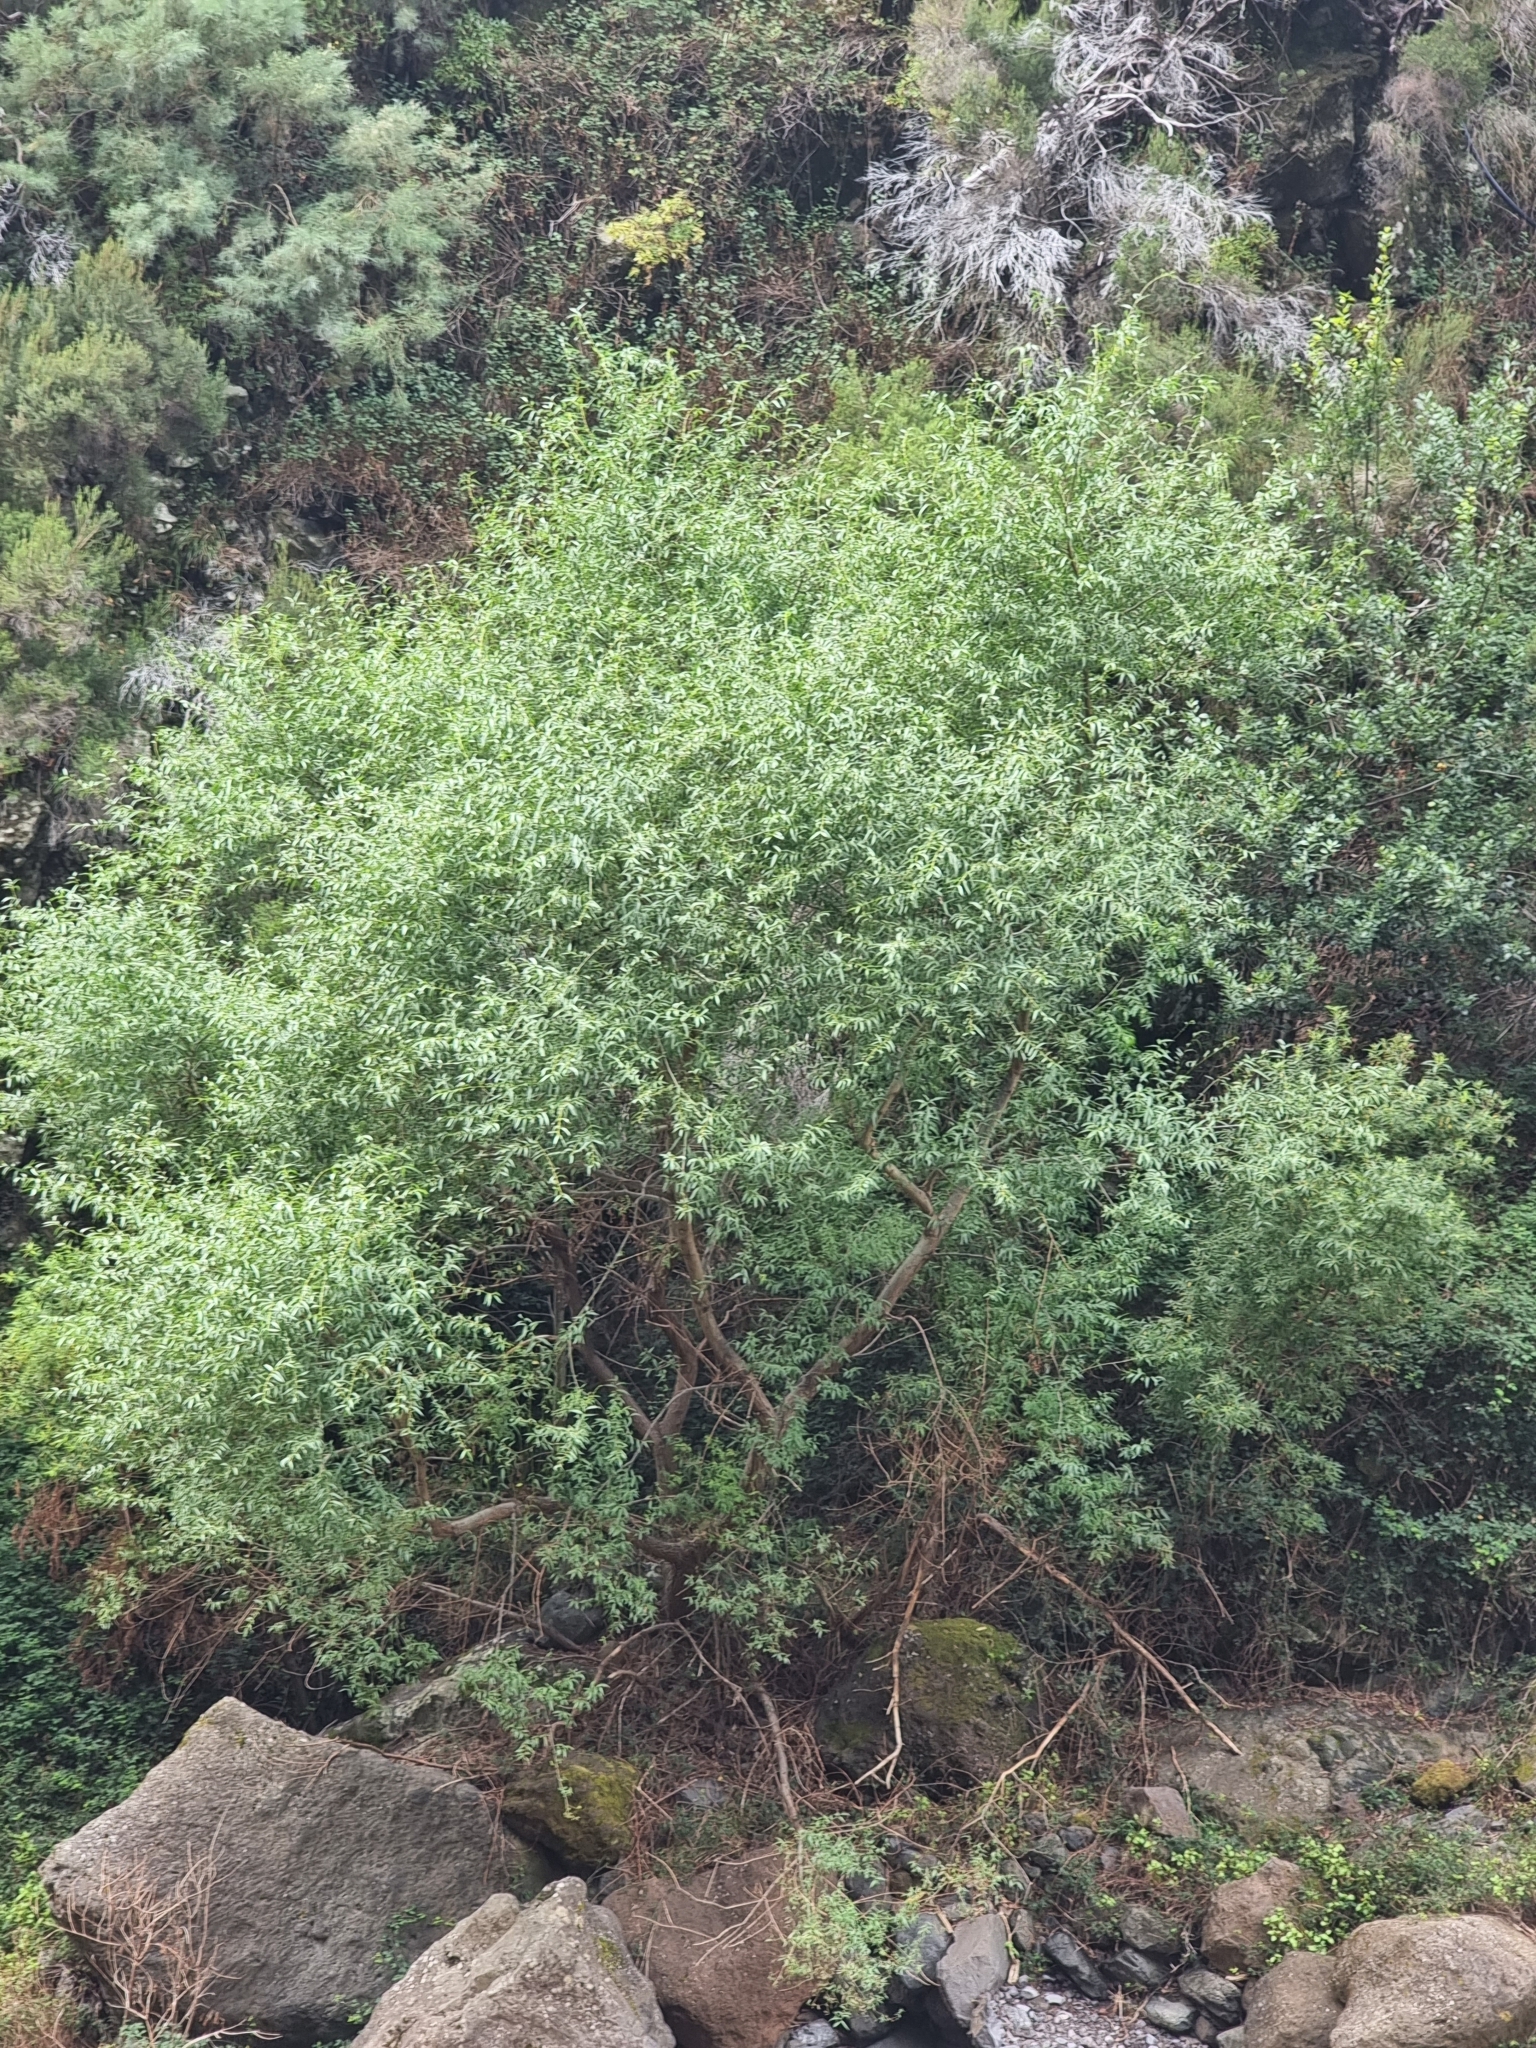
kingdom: Plantae
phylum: Tracheophyta
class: Magnoliopsida
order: Malpighiales
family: Salicaceae
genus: Salix
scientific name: Salix canariensis
